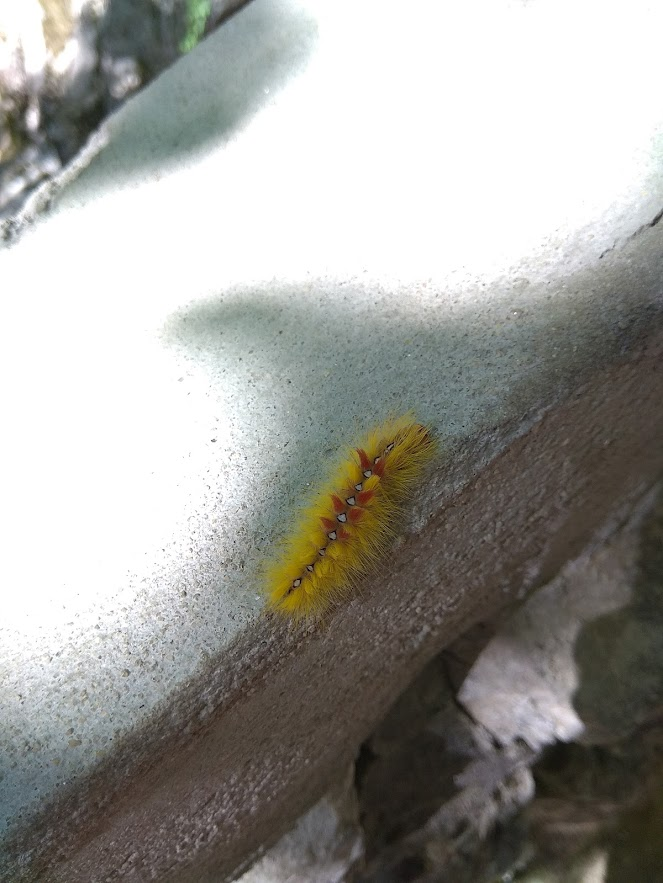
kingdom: Animalia
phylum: Arthropoda
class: Insecta
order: Lepidoptera
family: Noctuidae
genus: Acronicta
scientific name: Acronicta aceris
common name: Sycamore
